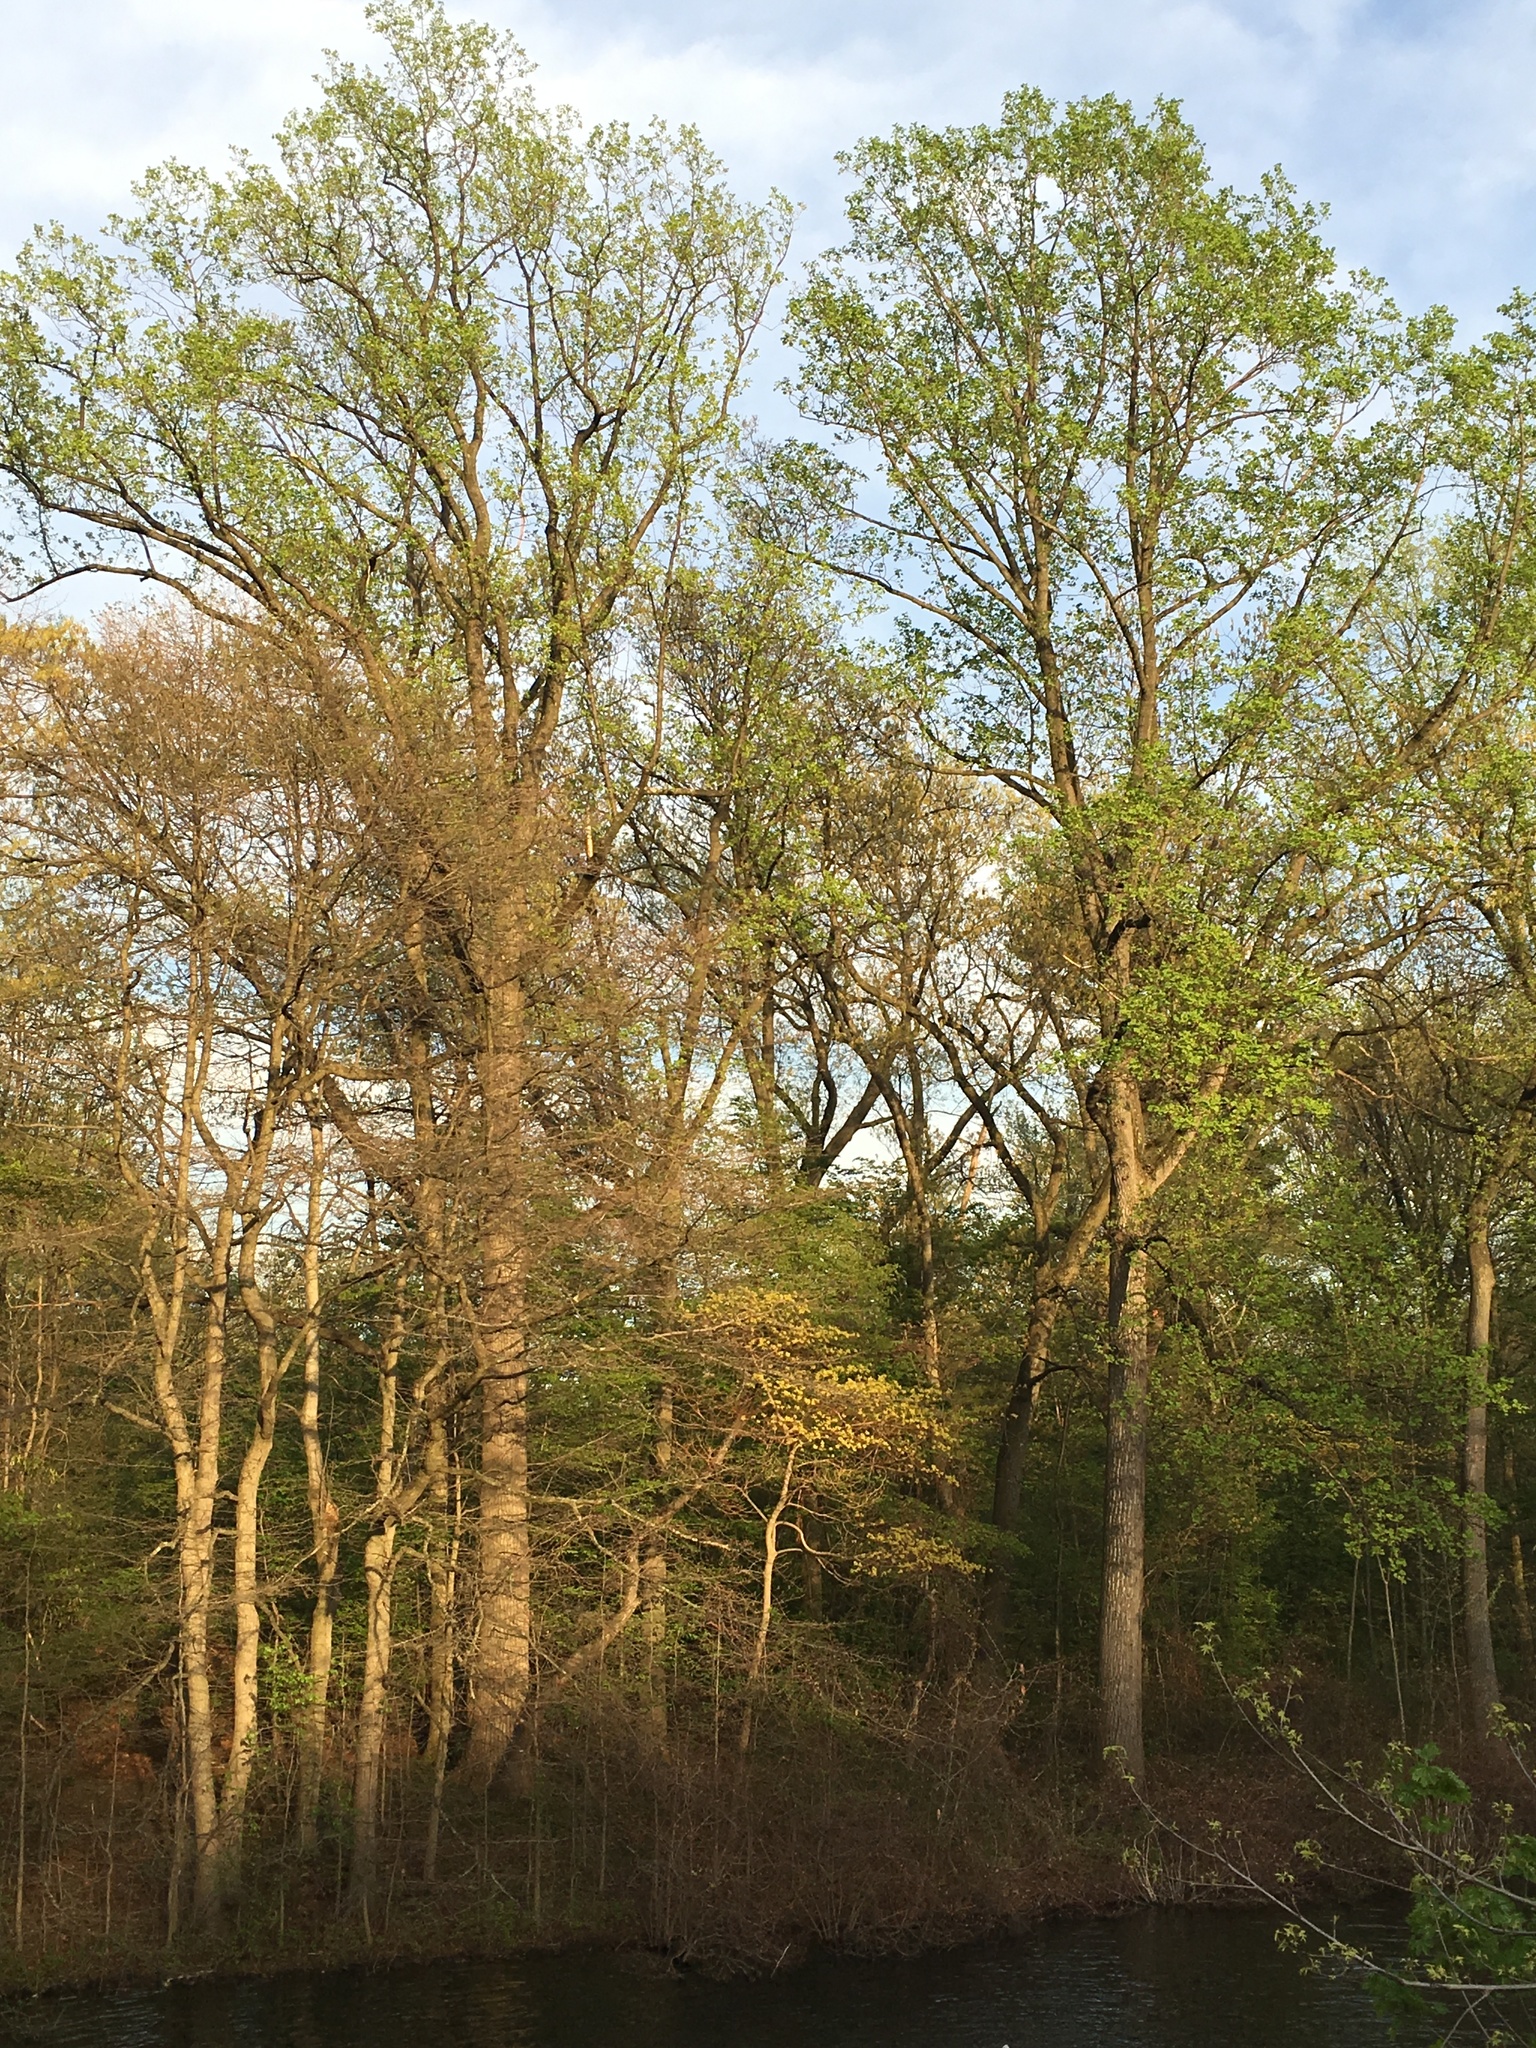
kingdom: Plantae
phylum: Tracheophyta
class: Magnoliopsida
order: Laurales
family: Lauraceae
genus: Sassafras
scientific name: Sassafras albidum
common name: Sassafras
